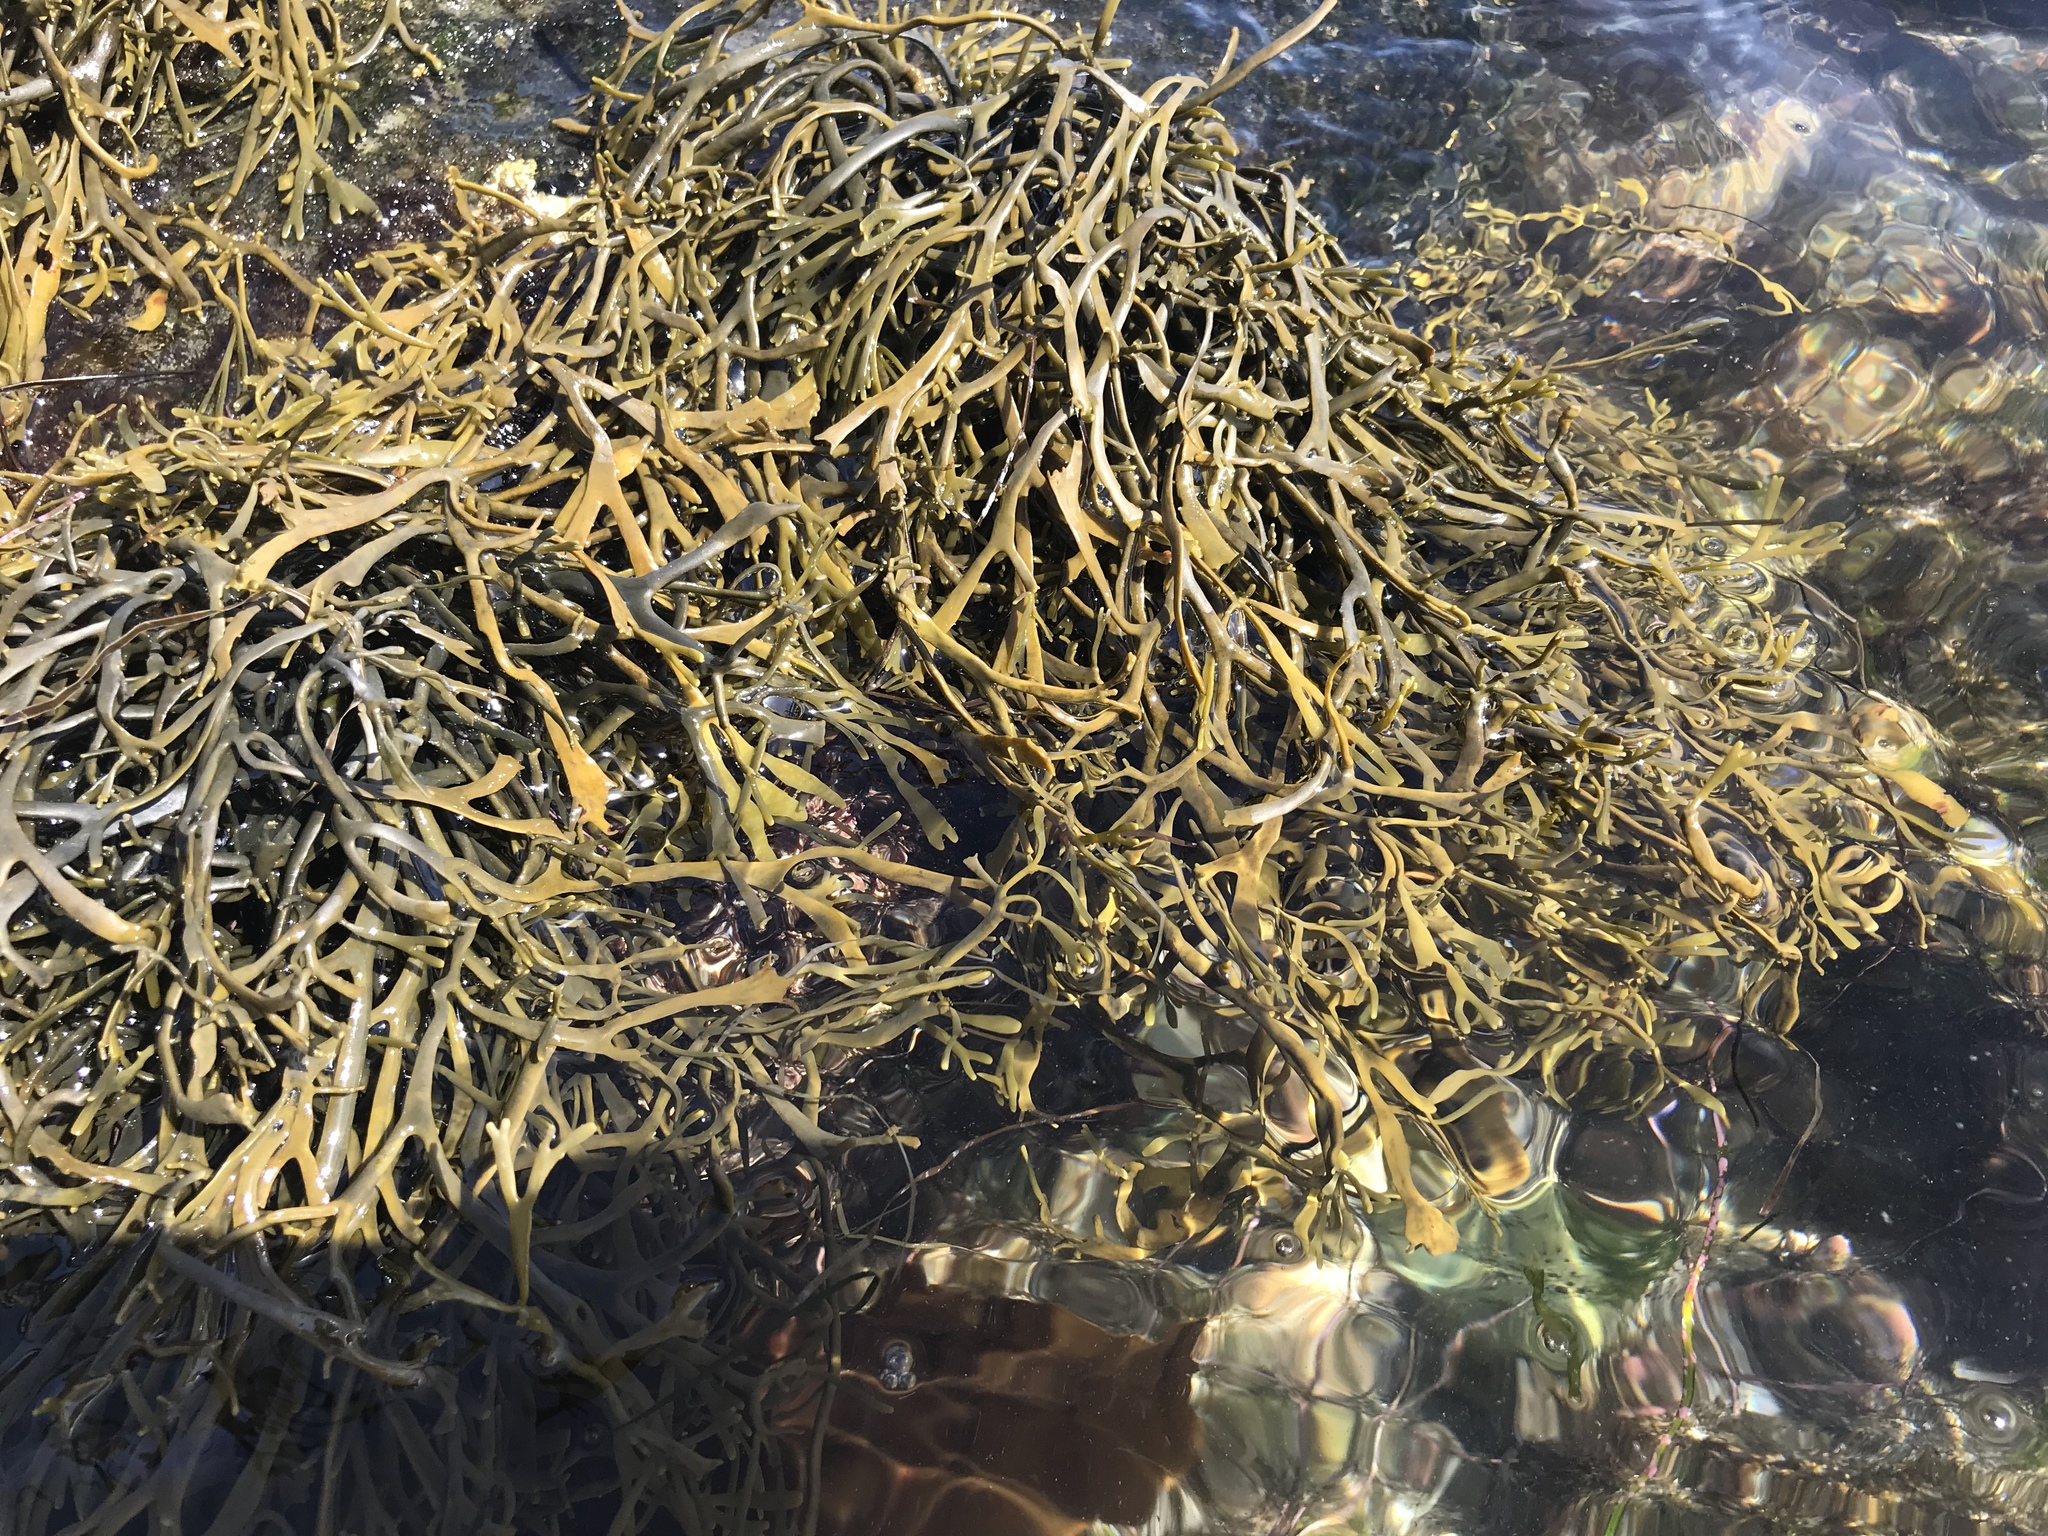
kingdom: Chromista
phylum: Ochrophyta
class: Phaeophyceae
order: Fucales
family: Fucaceae
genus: Silvetia
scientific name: Silvetia
